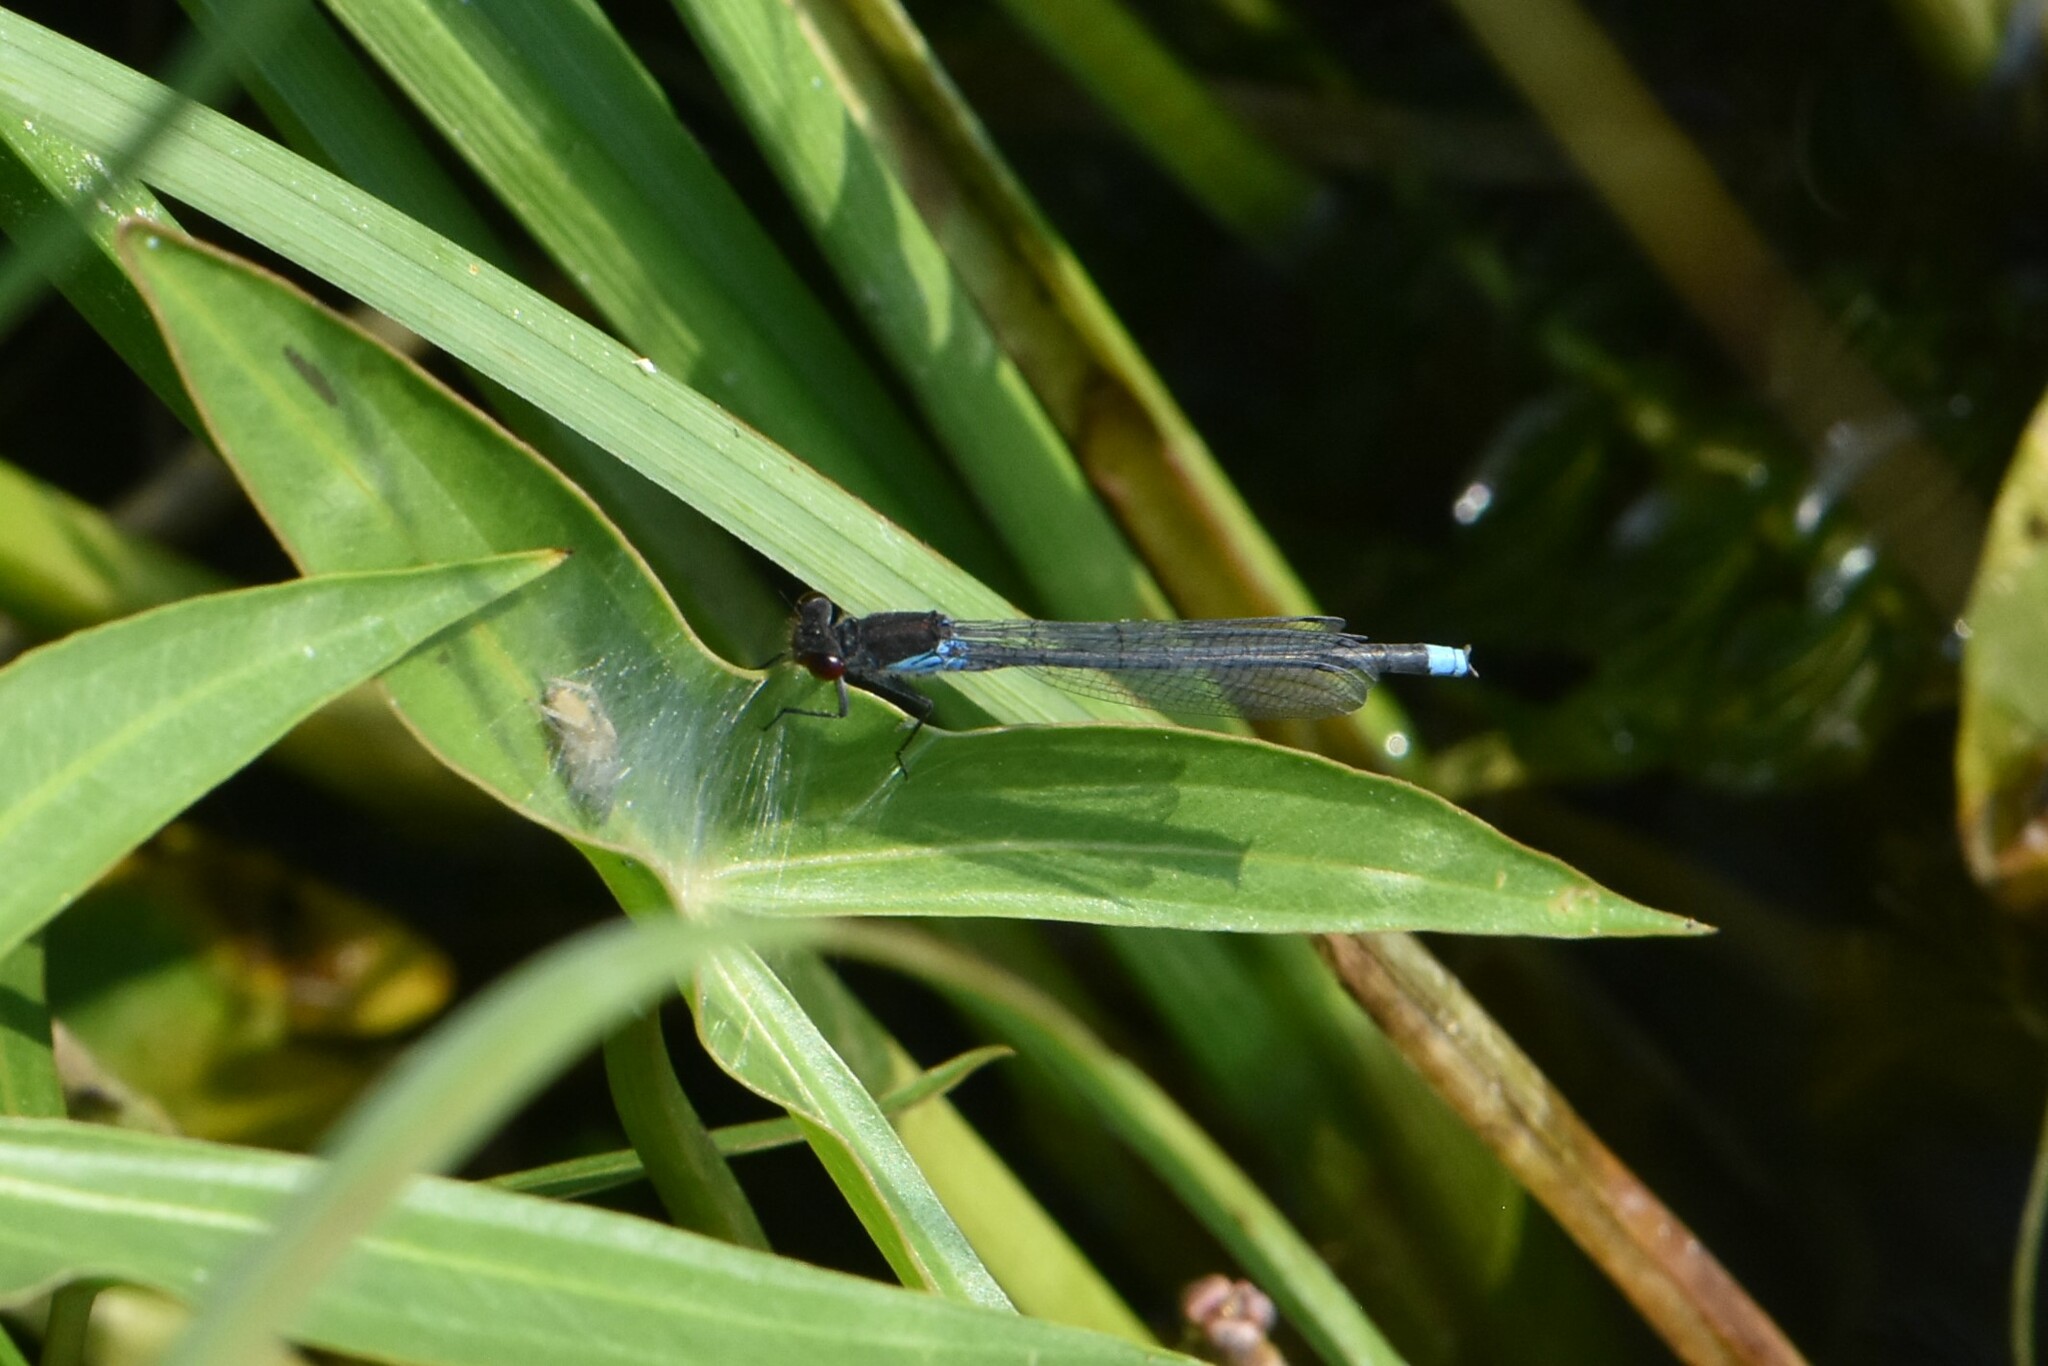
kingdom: Animalia
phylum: Arthropoda
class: Insecta
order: Odonata
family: Coenagrionidae
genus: Erythromma
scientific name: Erythromma najas
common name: Red-eyed damselfly
